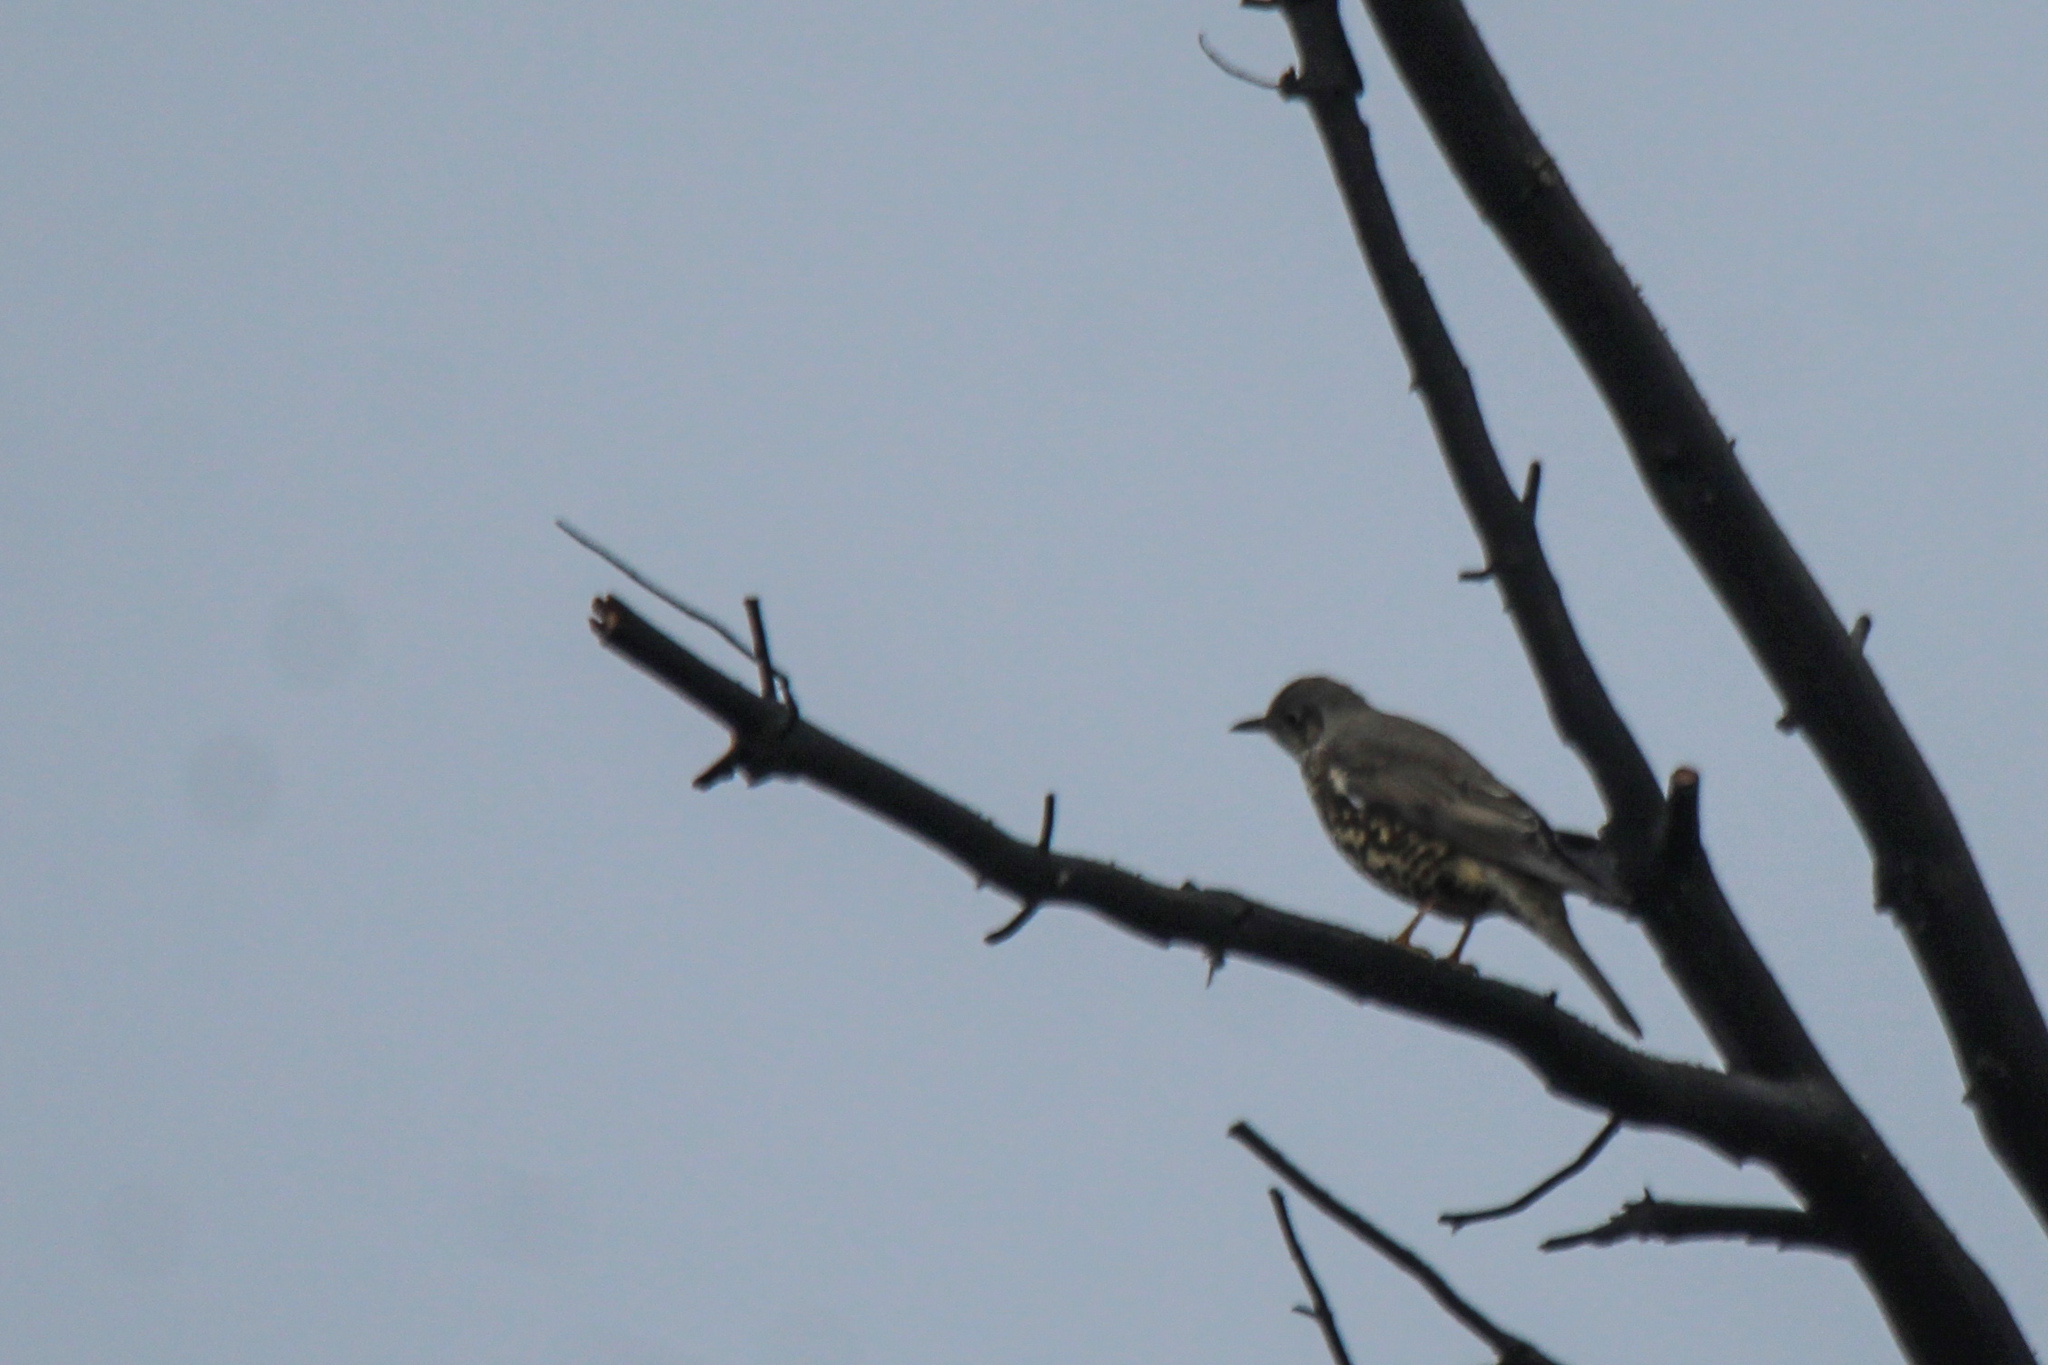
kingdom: Animalia
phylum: Chordata
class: Aves
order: Passeriformes
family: Turdidae
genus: Turdus
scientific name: Turdus viscivorus
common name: Mistle thrush
